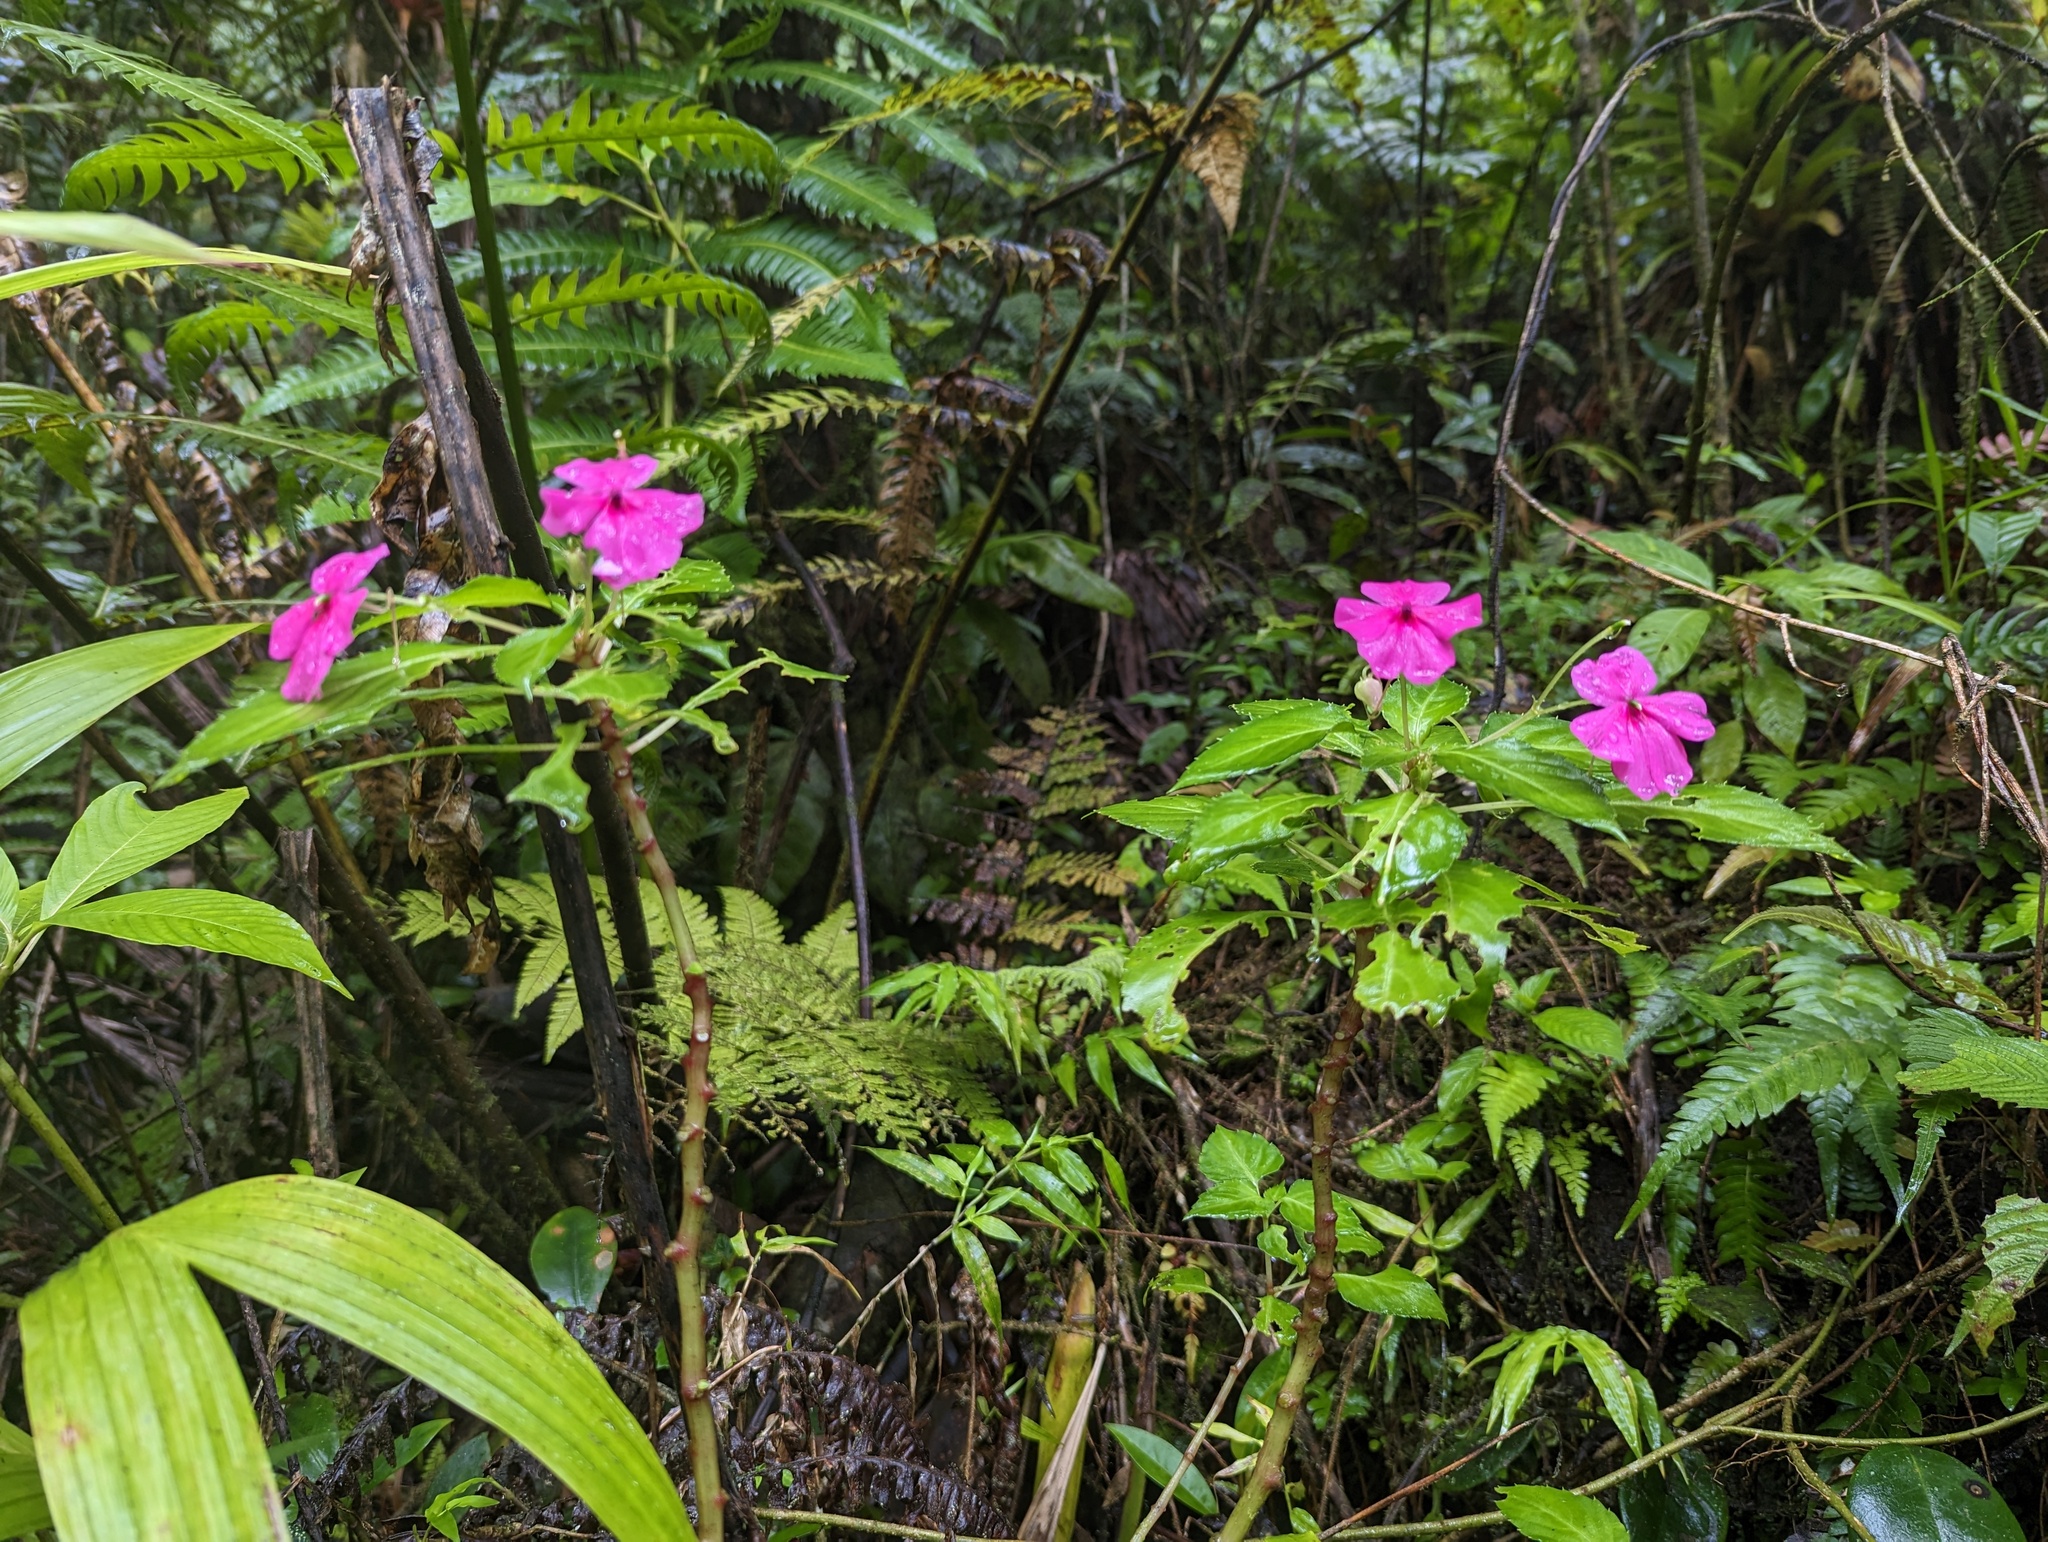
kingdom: Plantae
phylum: Tracheophyta
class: Magnoliopsida
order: Ericales
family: Balsaminaceae
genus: Impatiens
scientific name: Impatiens walleriana
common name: Buzzy lizzy
